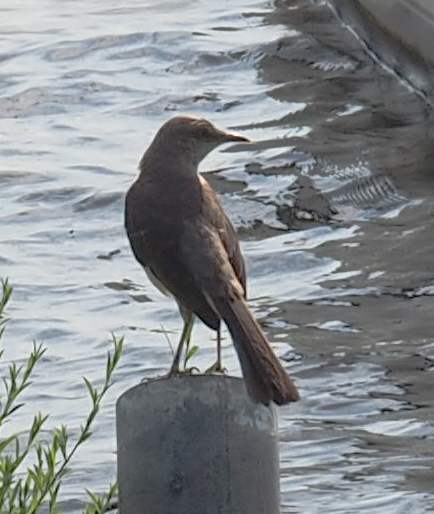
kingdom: Animalia
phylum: Chordata
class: Aves
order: Passeriformes
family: Mimidae
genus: Mimus
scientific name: Mimus polyglottos
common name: Northern mockingbird
